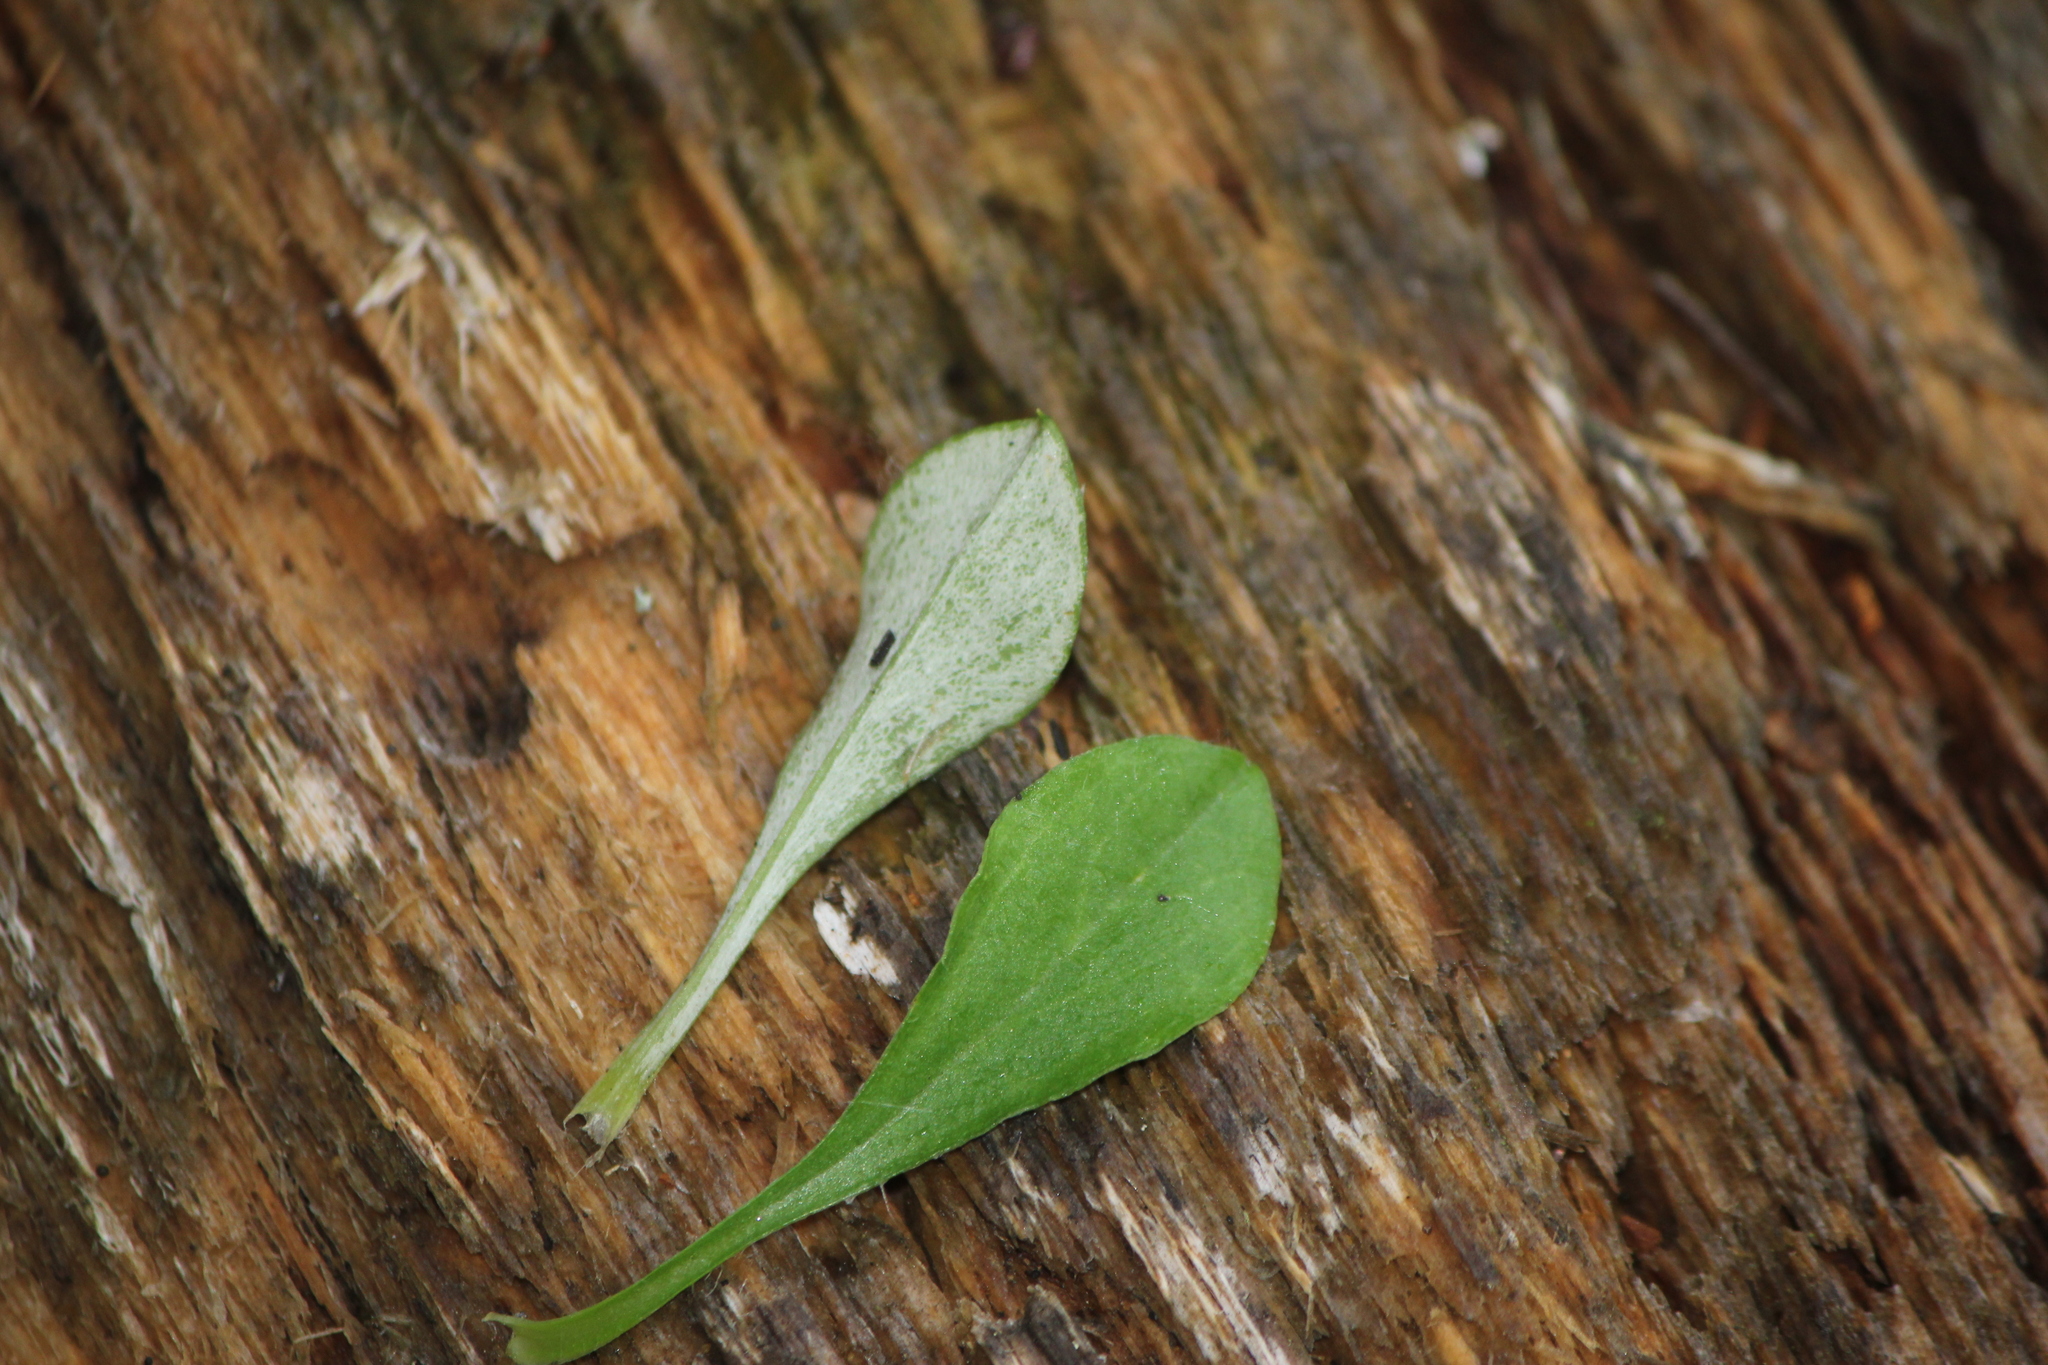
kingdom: Plantae
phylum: Tracheophyta
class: Magnoliopsida
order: Asterales
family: Asteraceae
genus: Antennaria
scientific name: Antennaria howellii
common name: Howell's pussytoes
